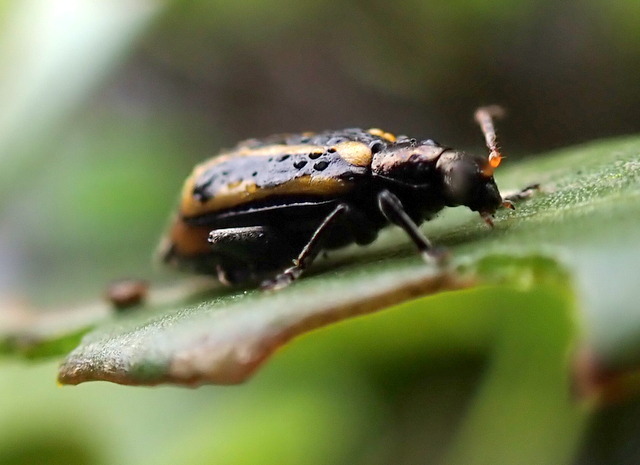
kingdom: Animalia
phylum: Arthropoda
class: Insecta
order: Coleoptera
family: Chrysomelidae
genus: Agasicles
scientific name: Agasicles hygrophila
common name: Alligatorweed flea beetle
